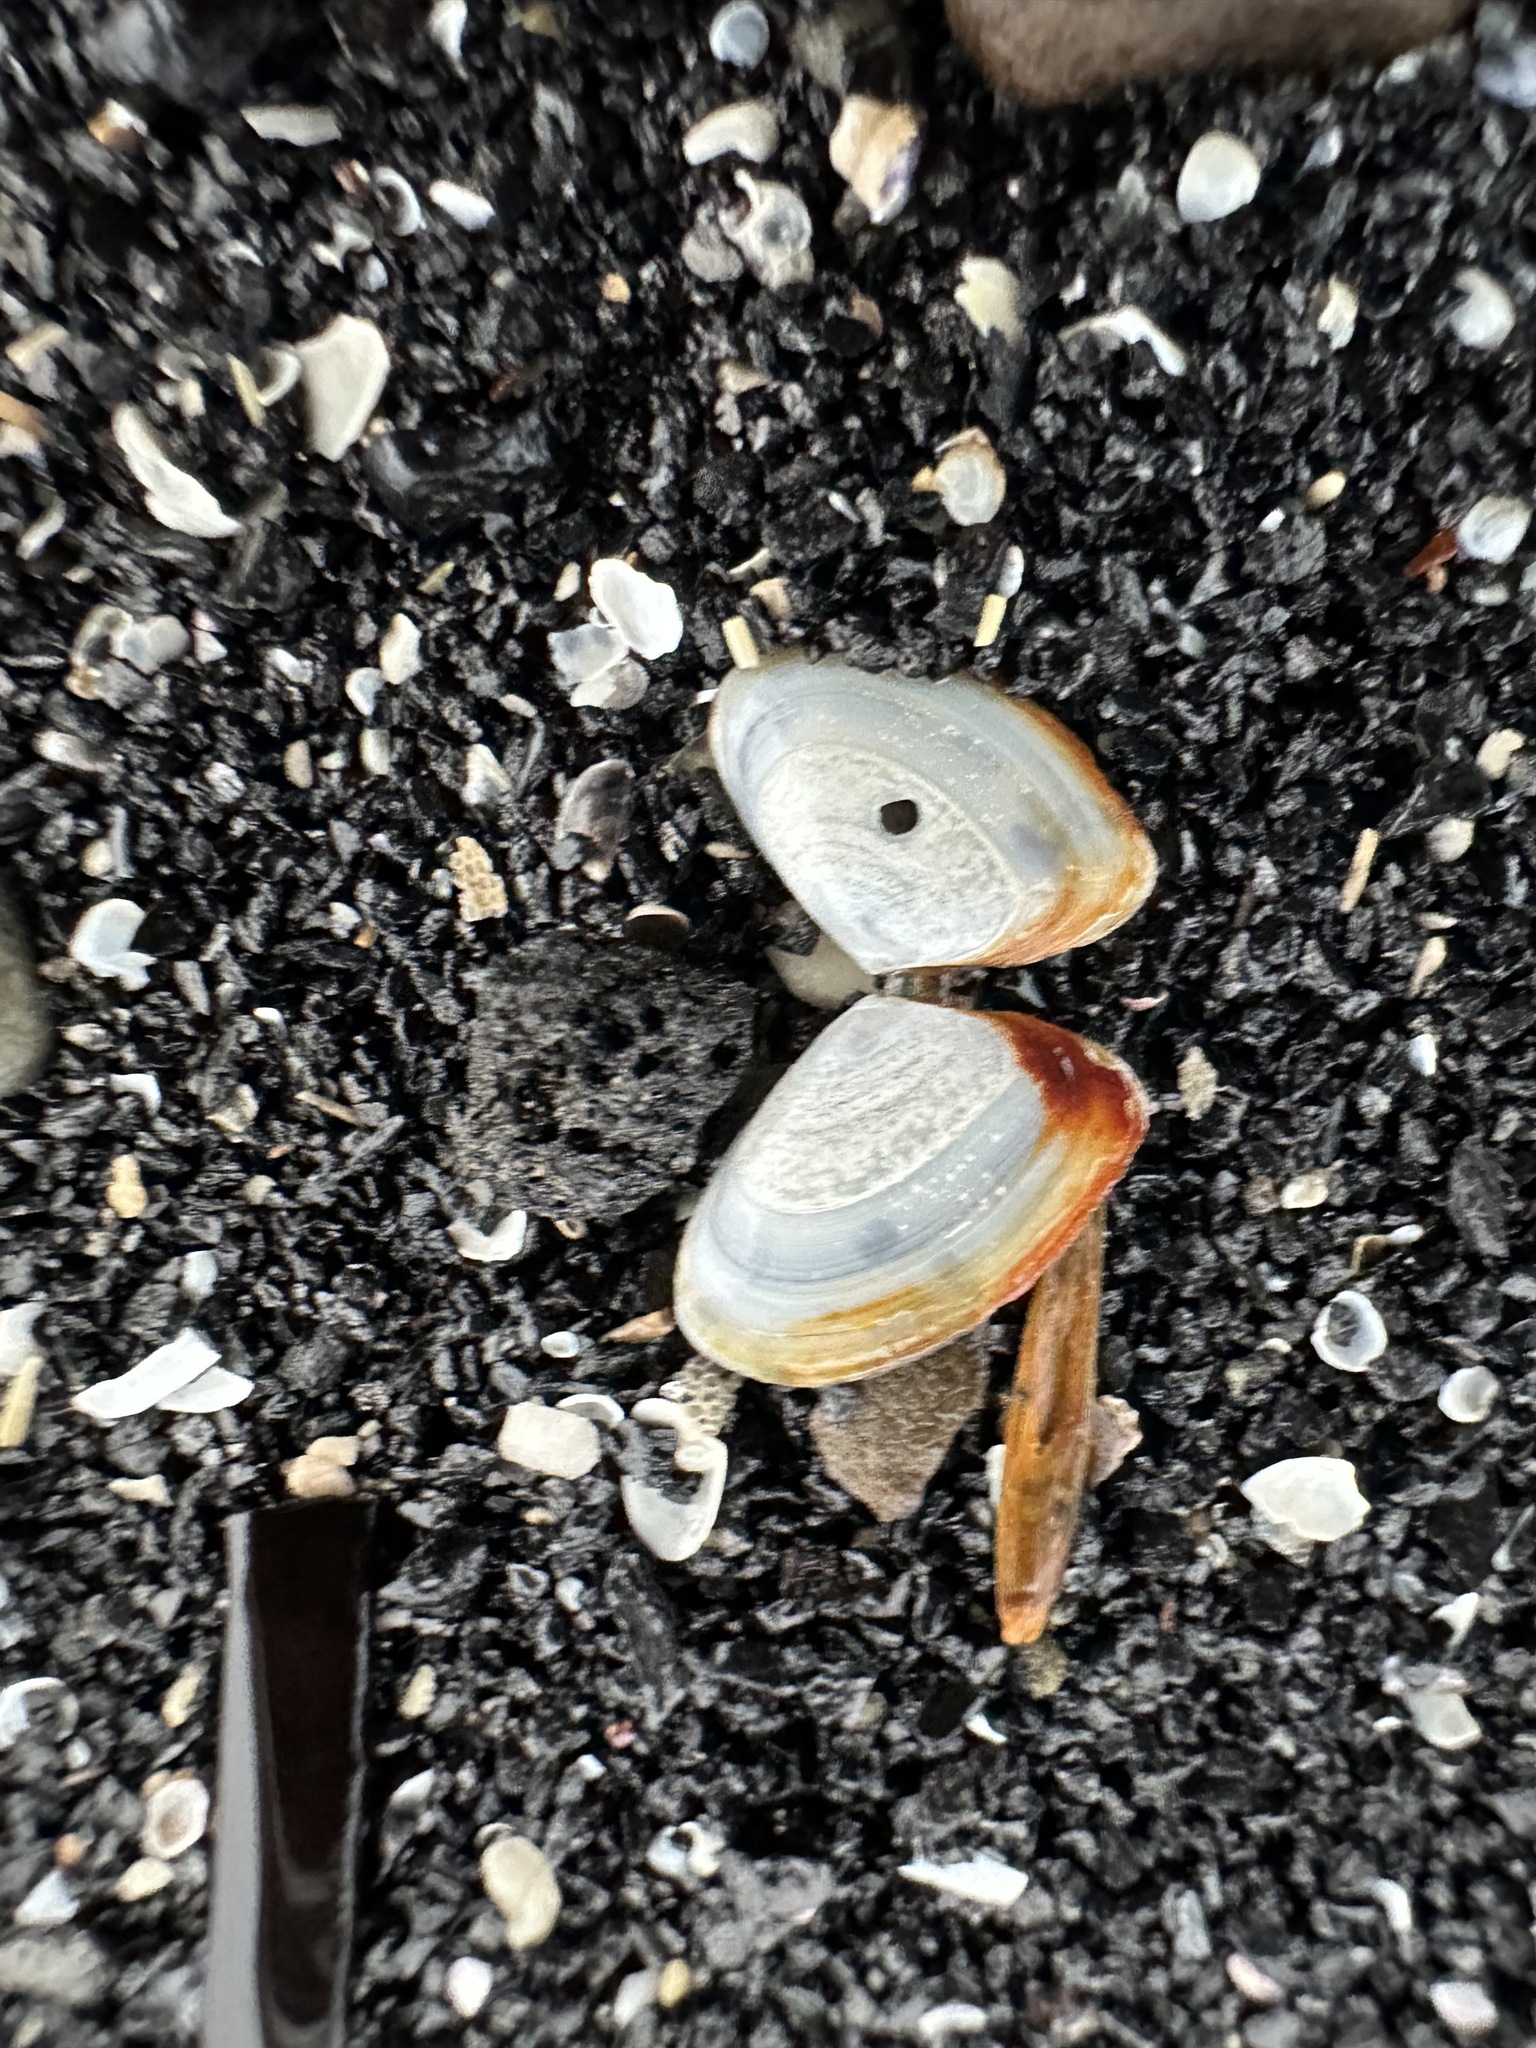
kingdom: Animalia
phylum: Mollusca
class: Bivalvia
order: Cardiida
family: Tellinidae
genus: Ameritella
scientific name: Ameritella agilis
